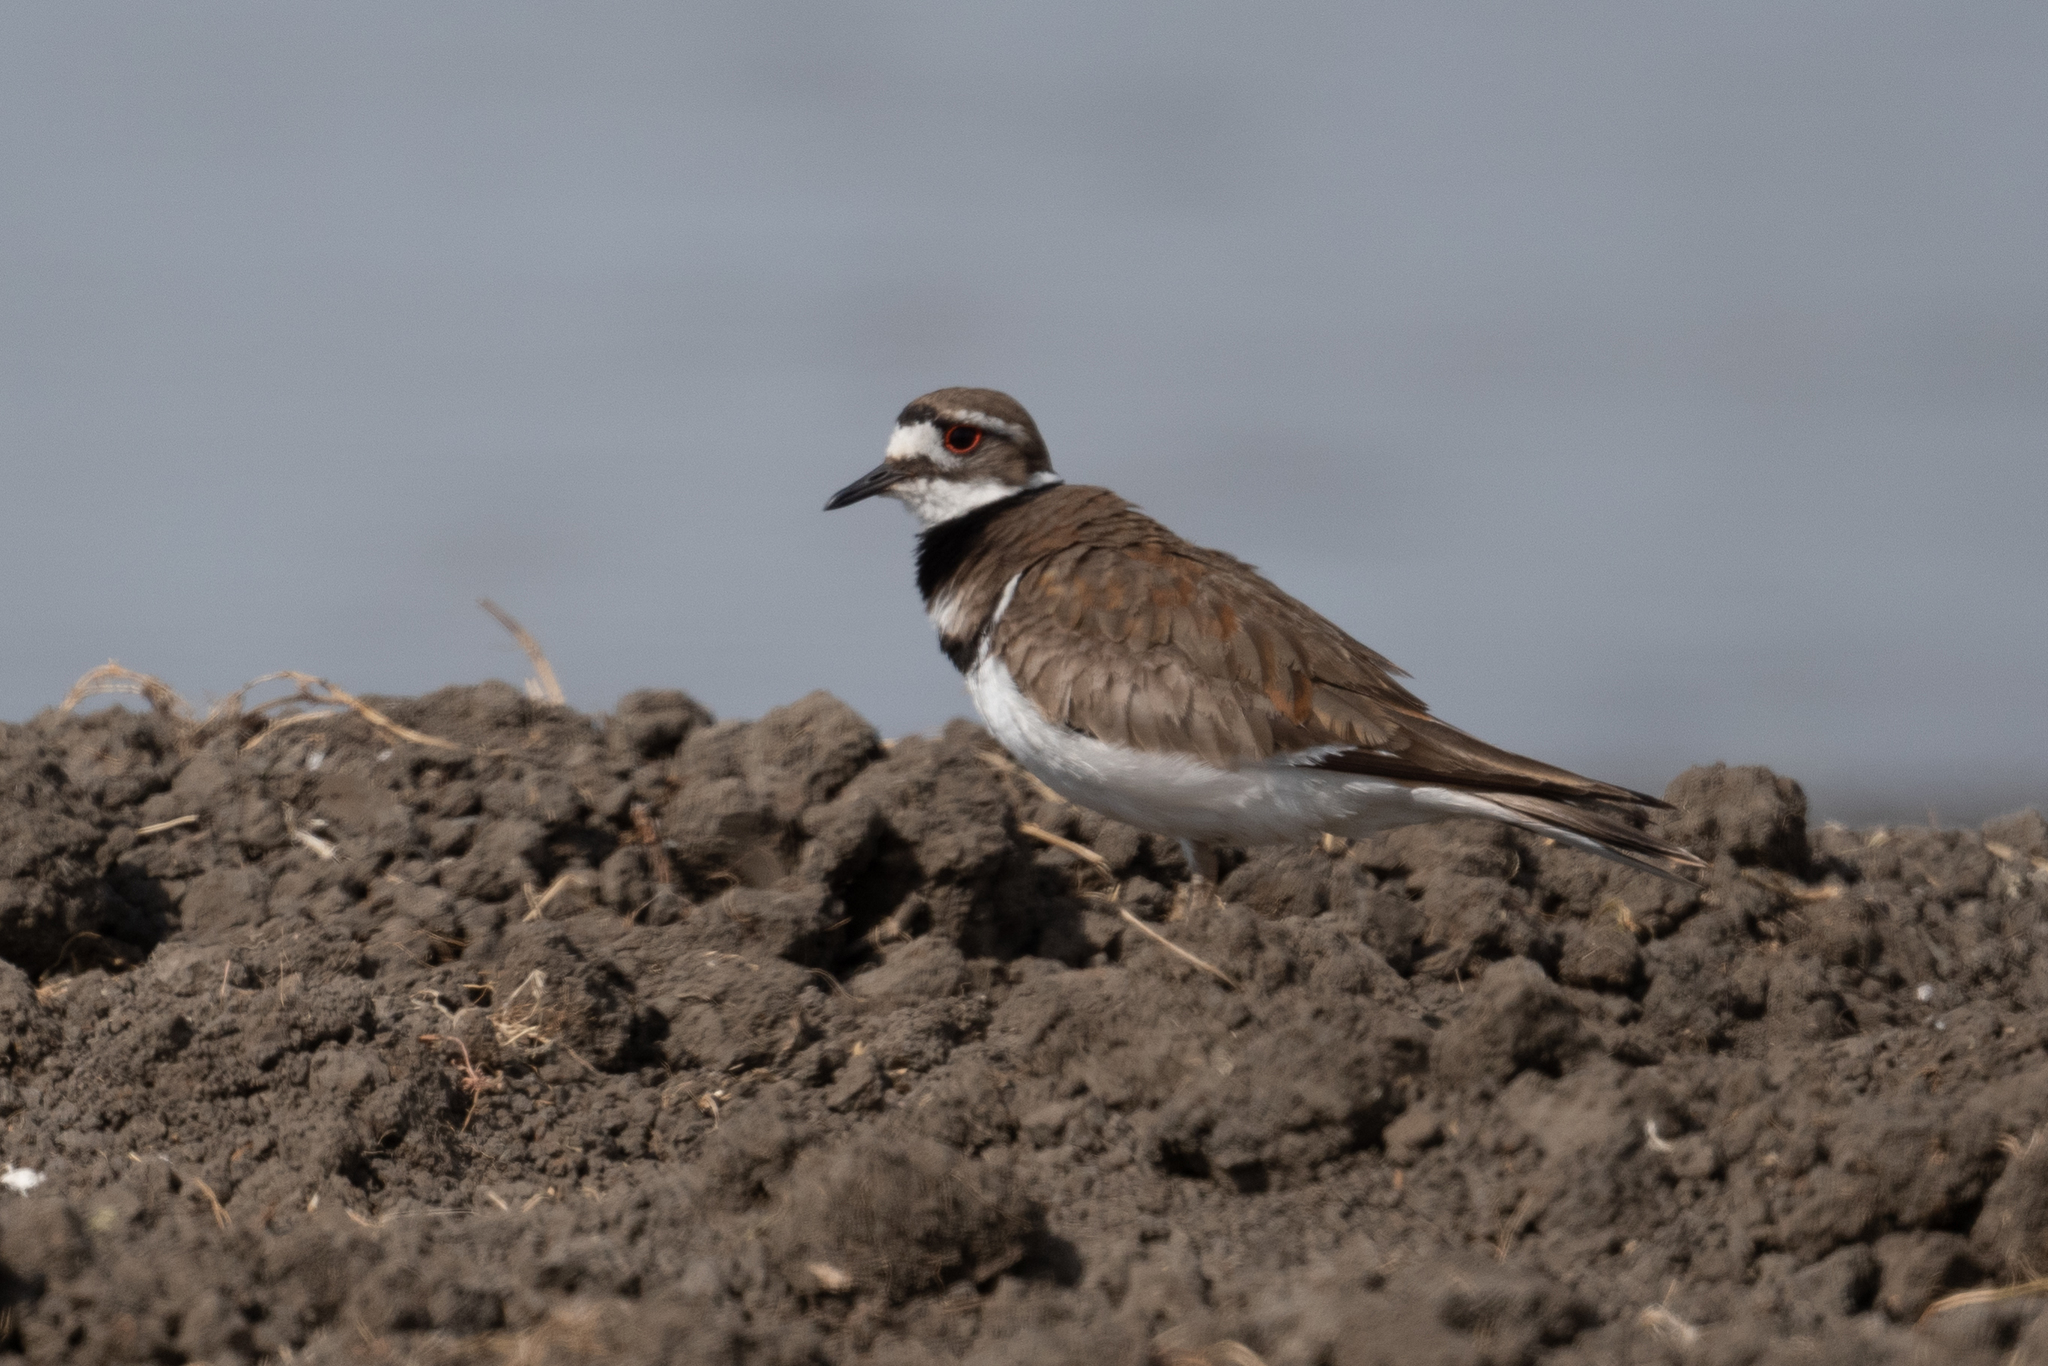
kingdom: Animalia
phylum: Chordata
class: Aves
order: Charadriiformes
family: Charadriidae
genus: Charadrius
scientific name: Charadrius vociferus
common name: Killdeer
